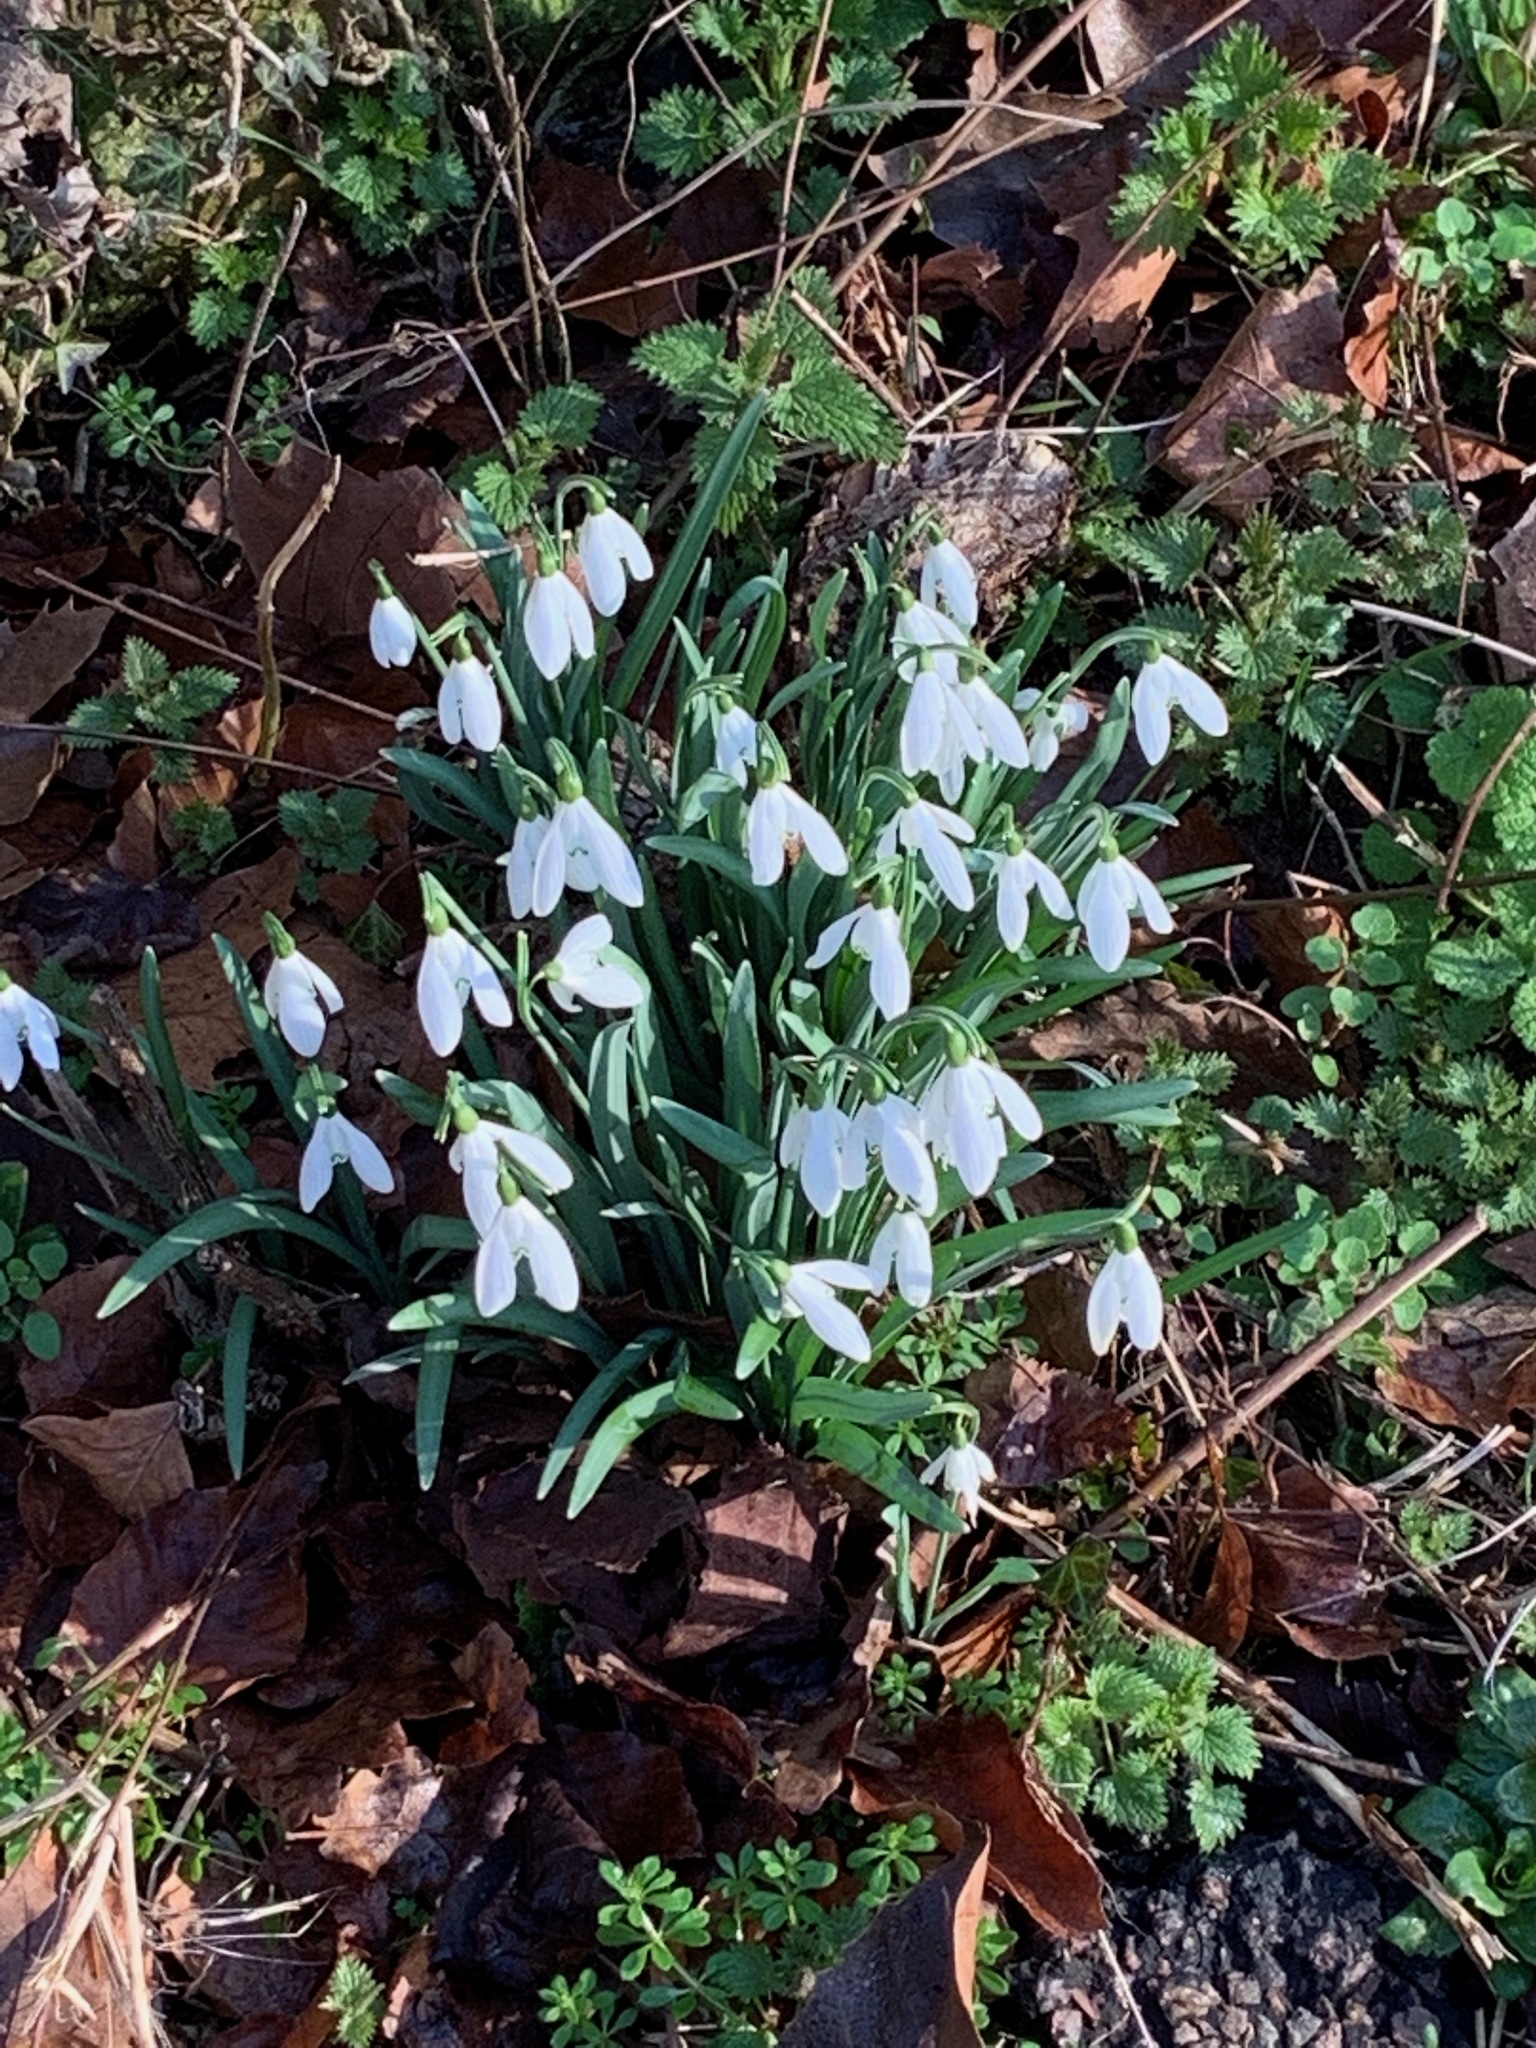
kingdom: Plantae
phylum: Tracheophyta
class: Liliopsida
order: Asparagales
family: Amaryllidaceae
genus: Galanthus
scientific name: Galanthus nivalis
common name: Snowdrop
